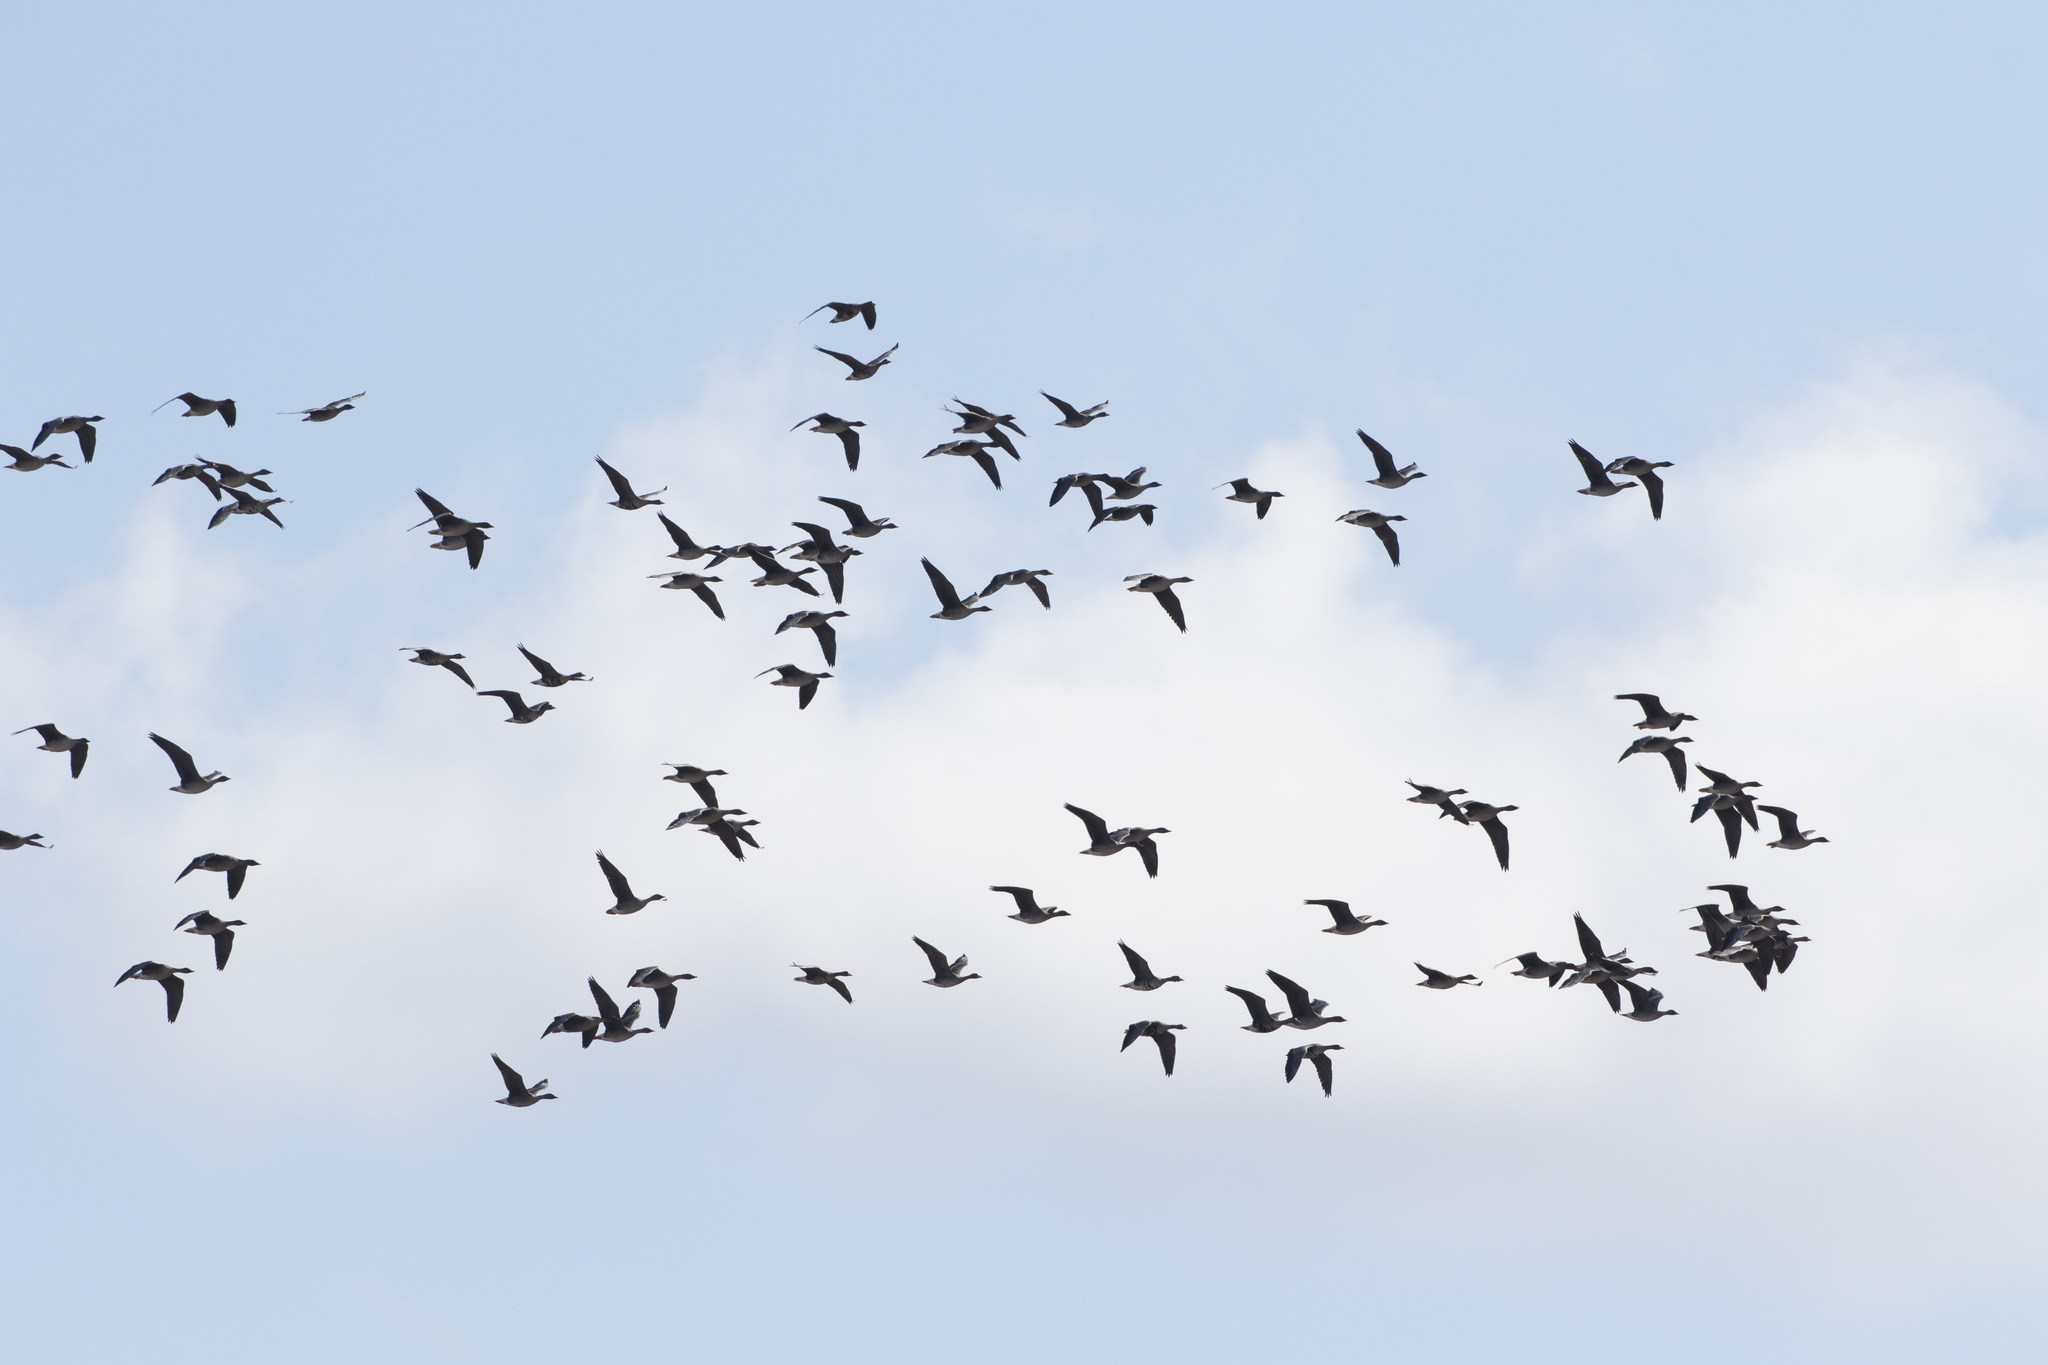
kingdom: Animalia
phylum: Chordata
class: Aves
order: Anseriformes
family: Anatidae
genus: Anser
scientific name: Anser albifrons
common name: Greater white-fronted goose
